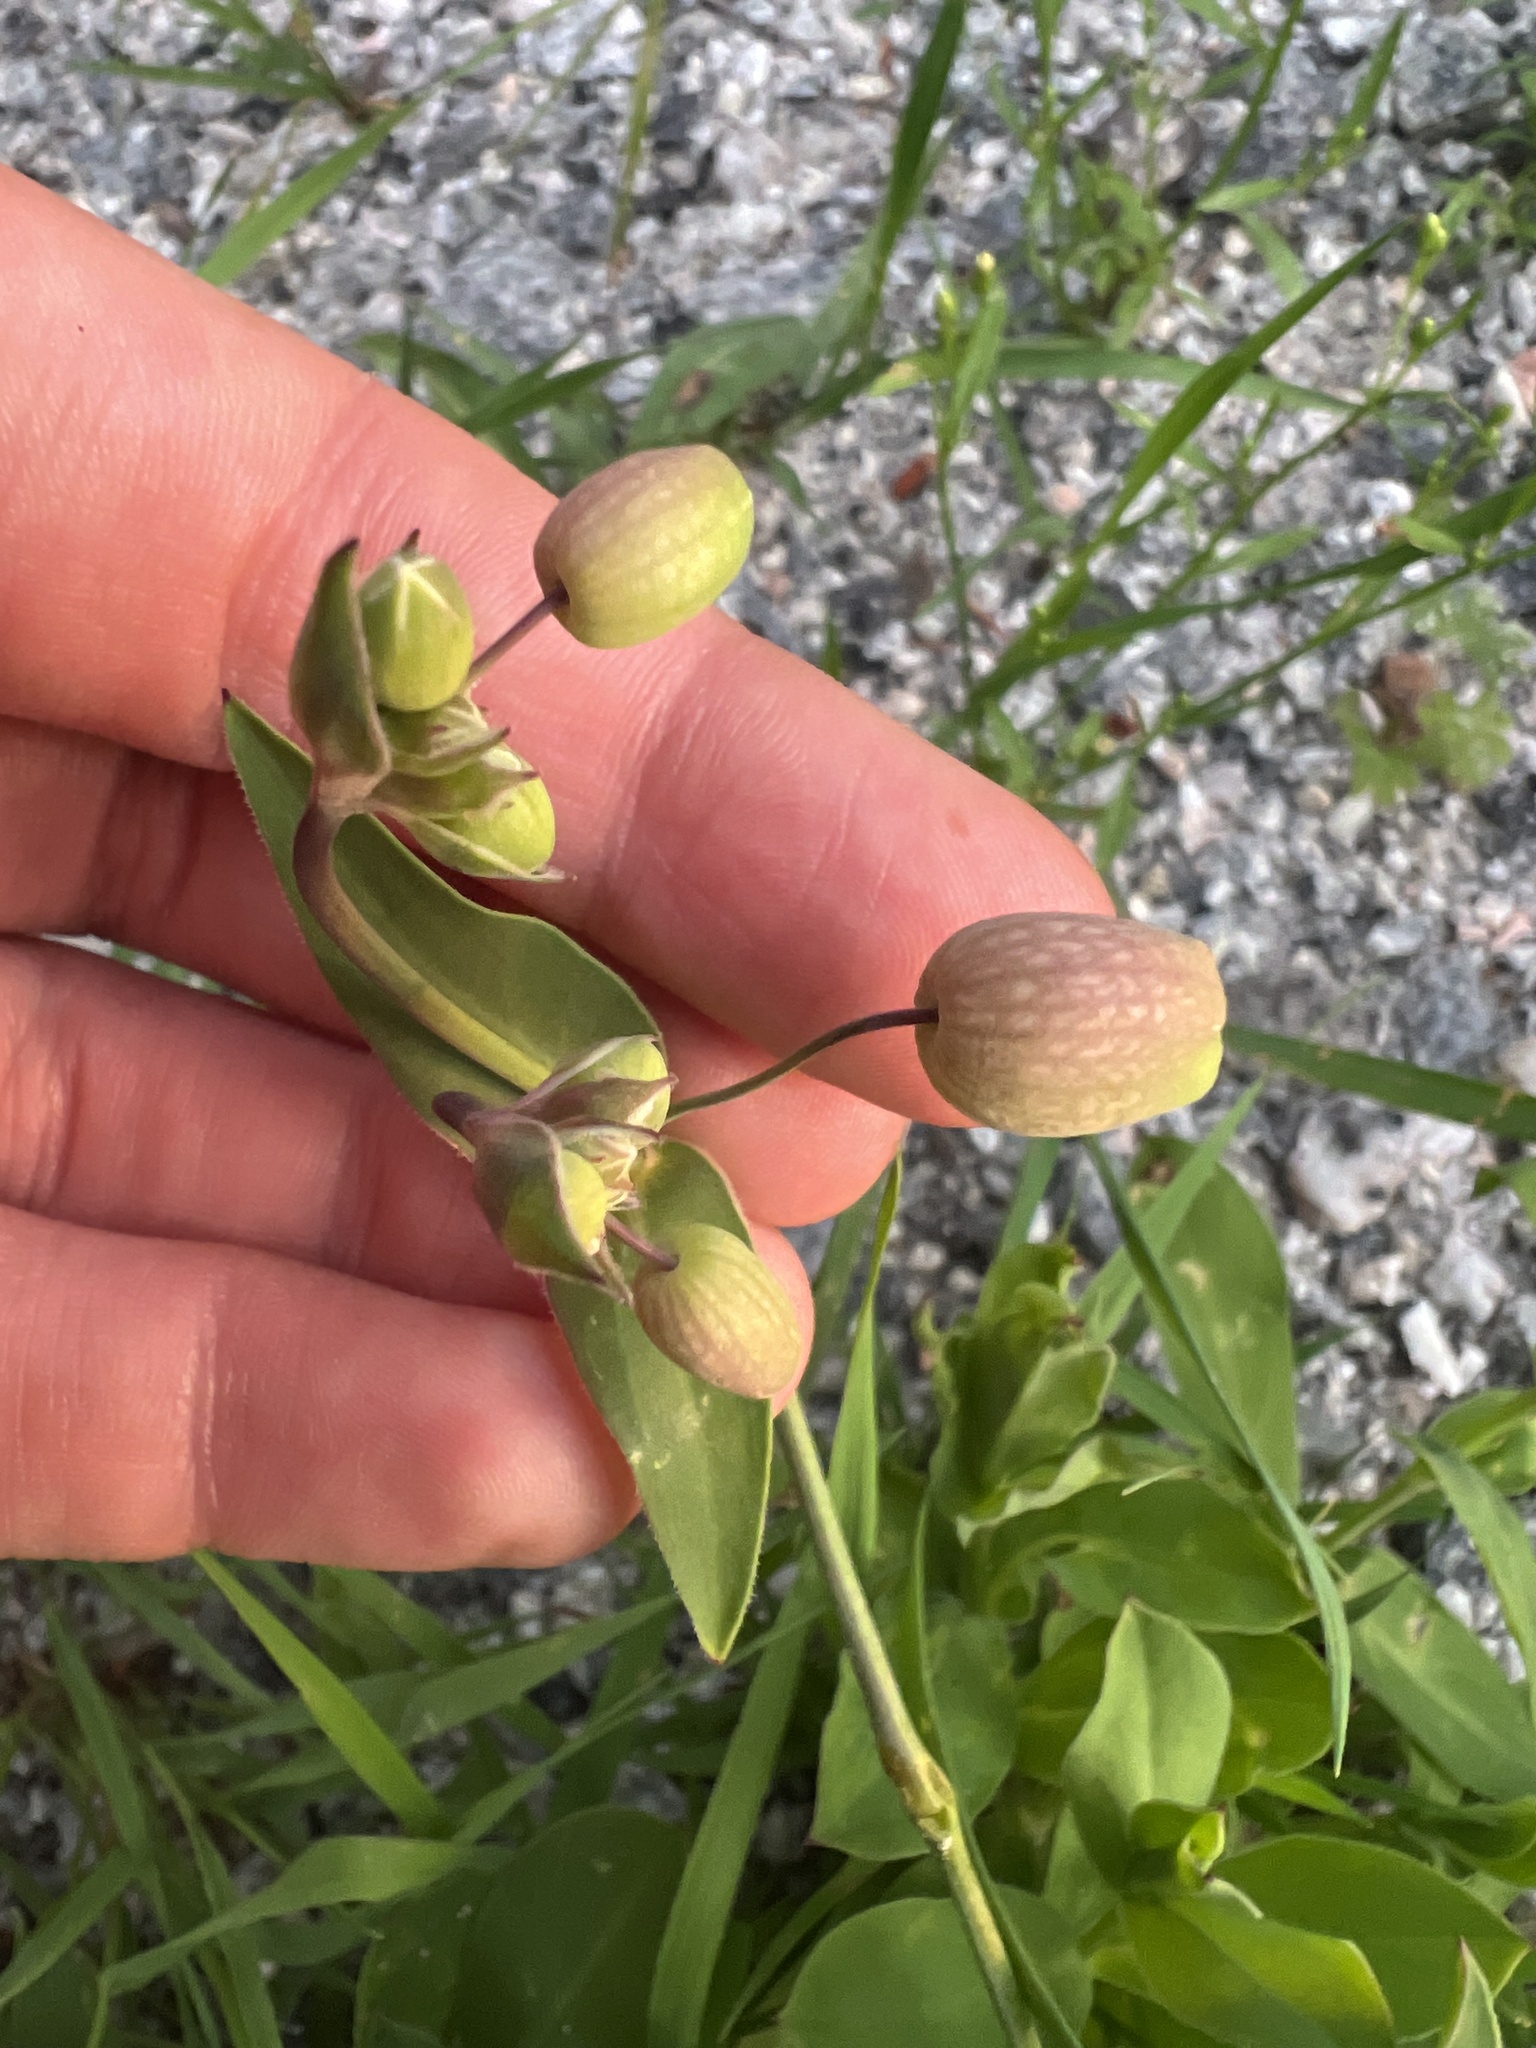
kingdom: Plantae
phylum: Tracheophyta
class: Magnoliopsida
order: Caryophyllales
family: Caryophyllaceae
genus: Silene
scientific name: Silene vulgaris
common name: Bladder campion
